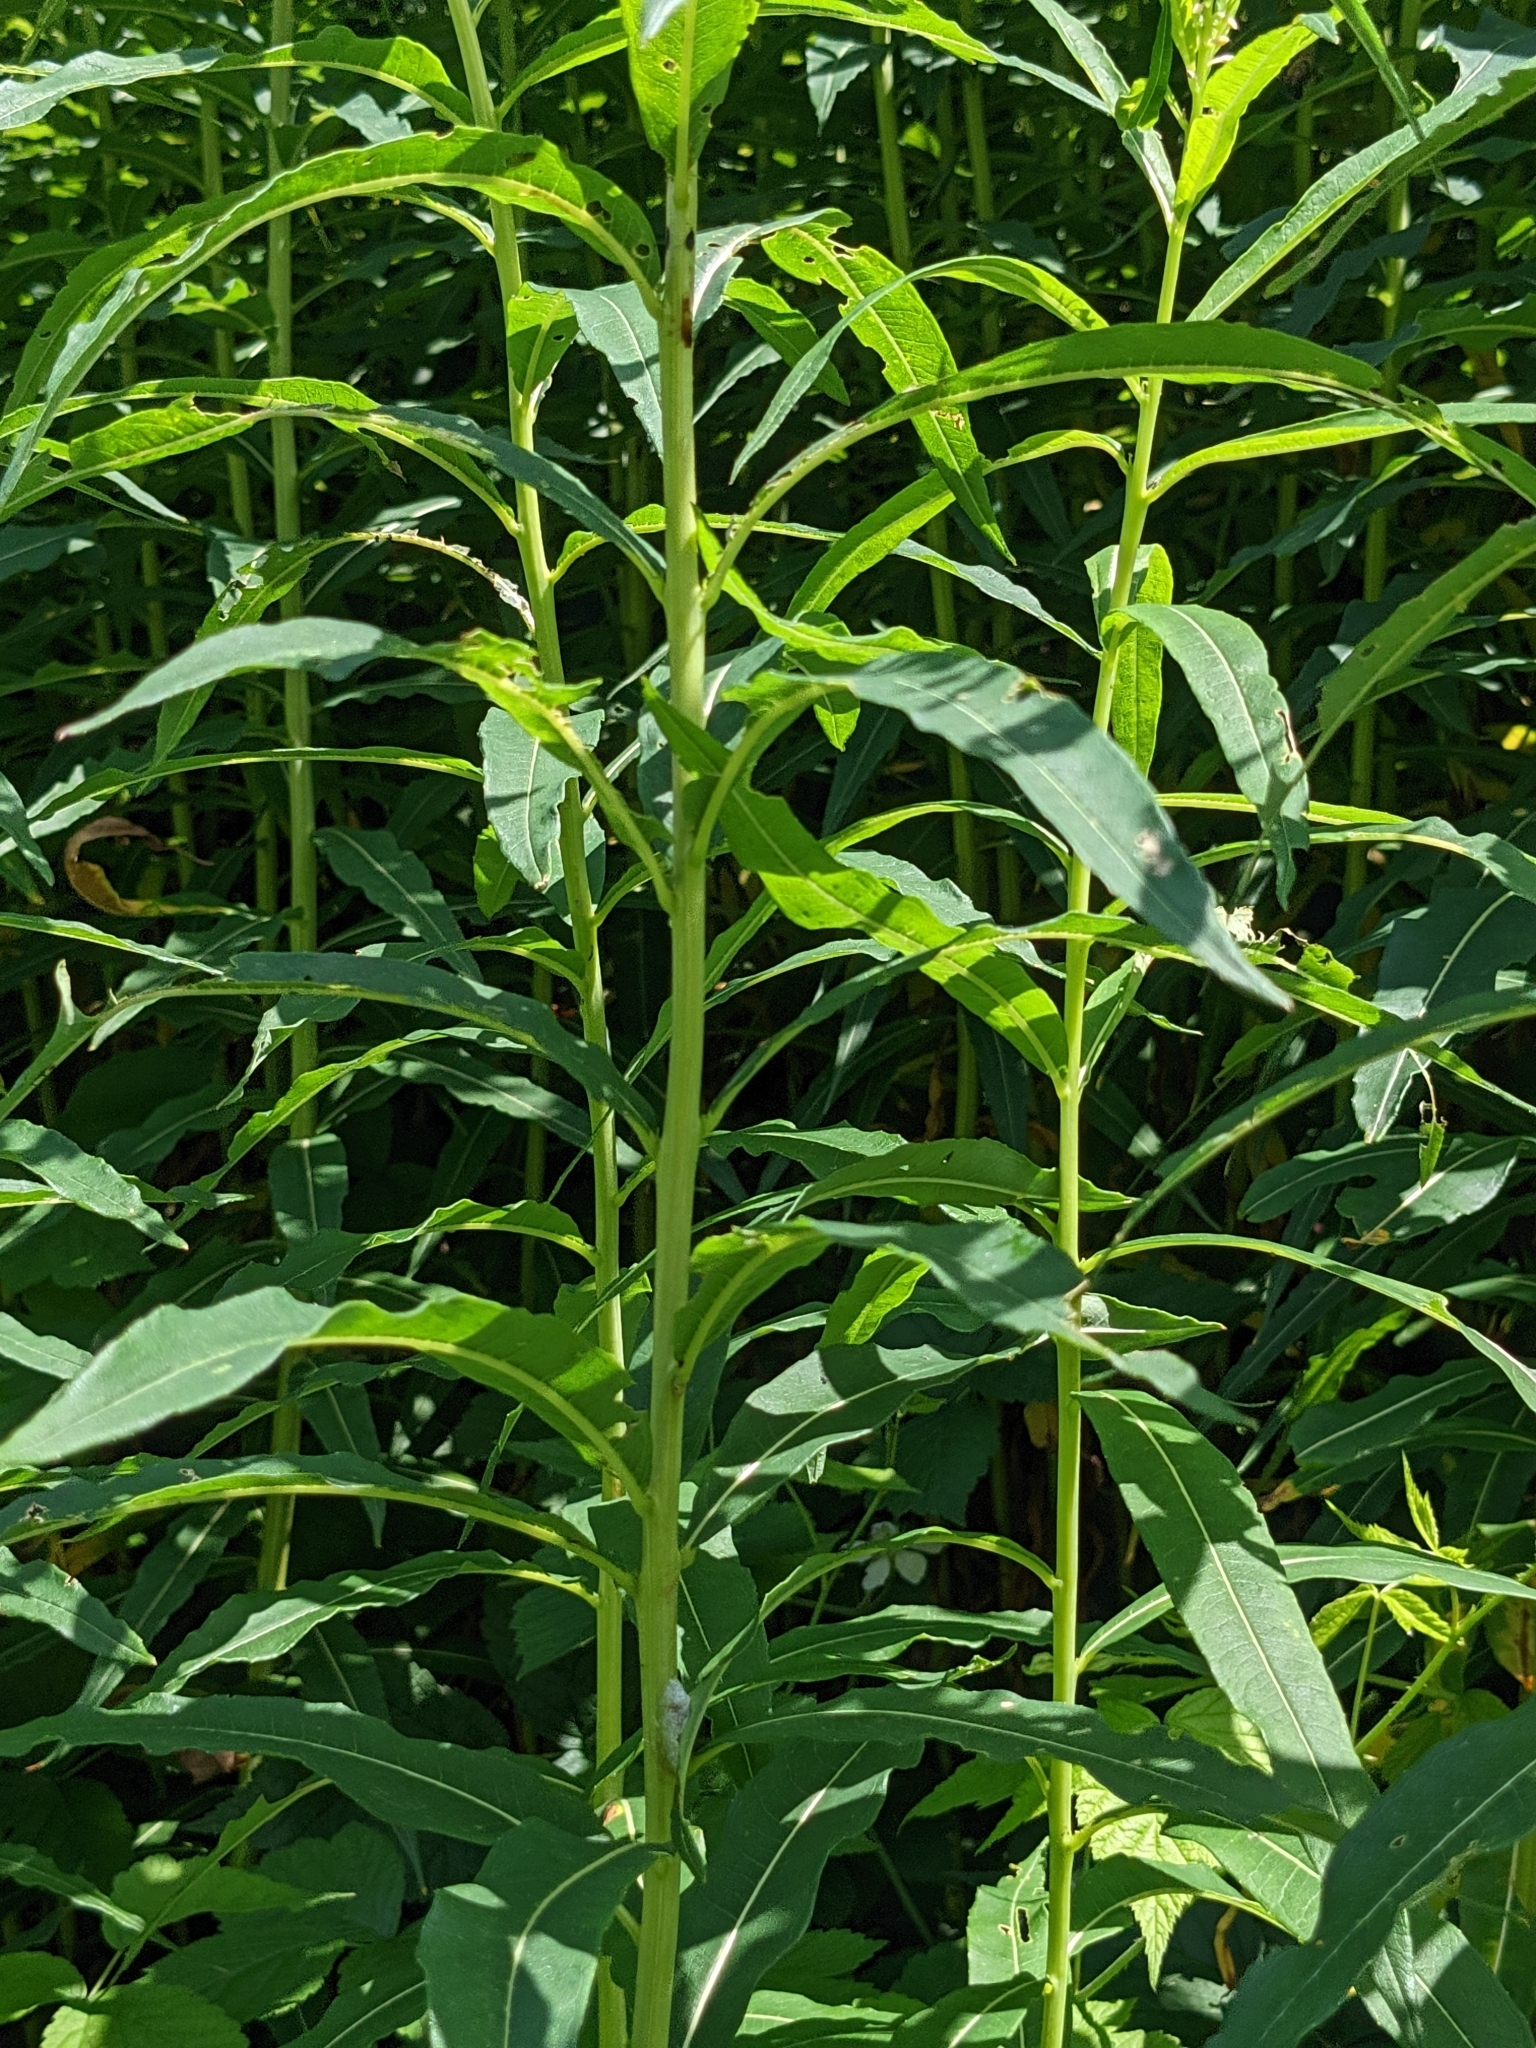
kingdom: Plantae
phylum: Tracheophyta
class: Magnoliopsida
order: Myrtales
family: Onagraceae
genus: Chamaenerion
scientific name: Chamaenerion angustifolium
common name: Fireweed
